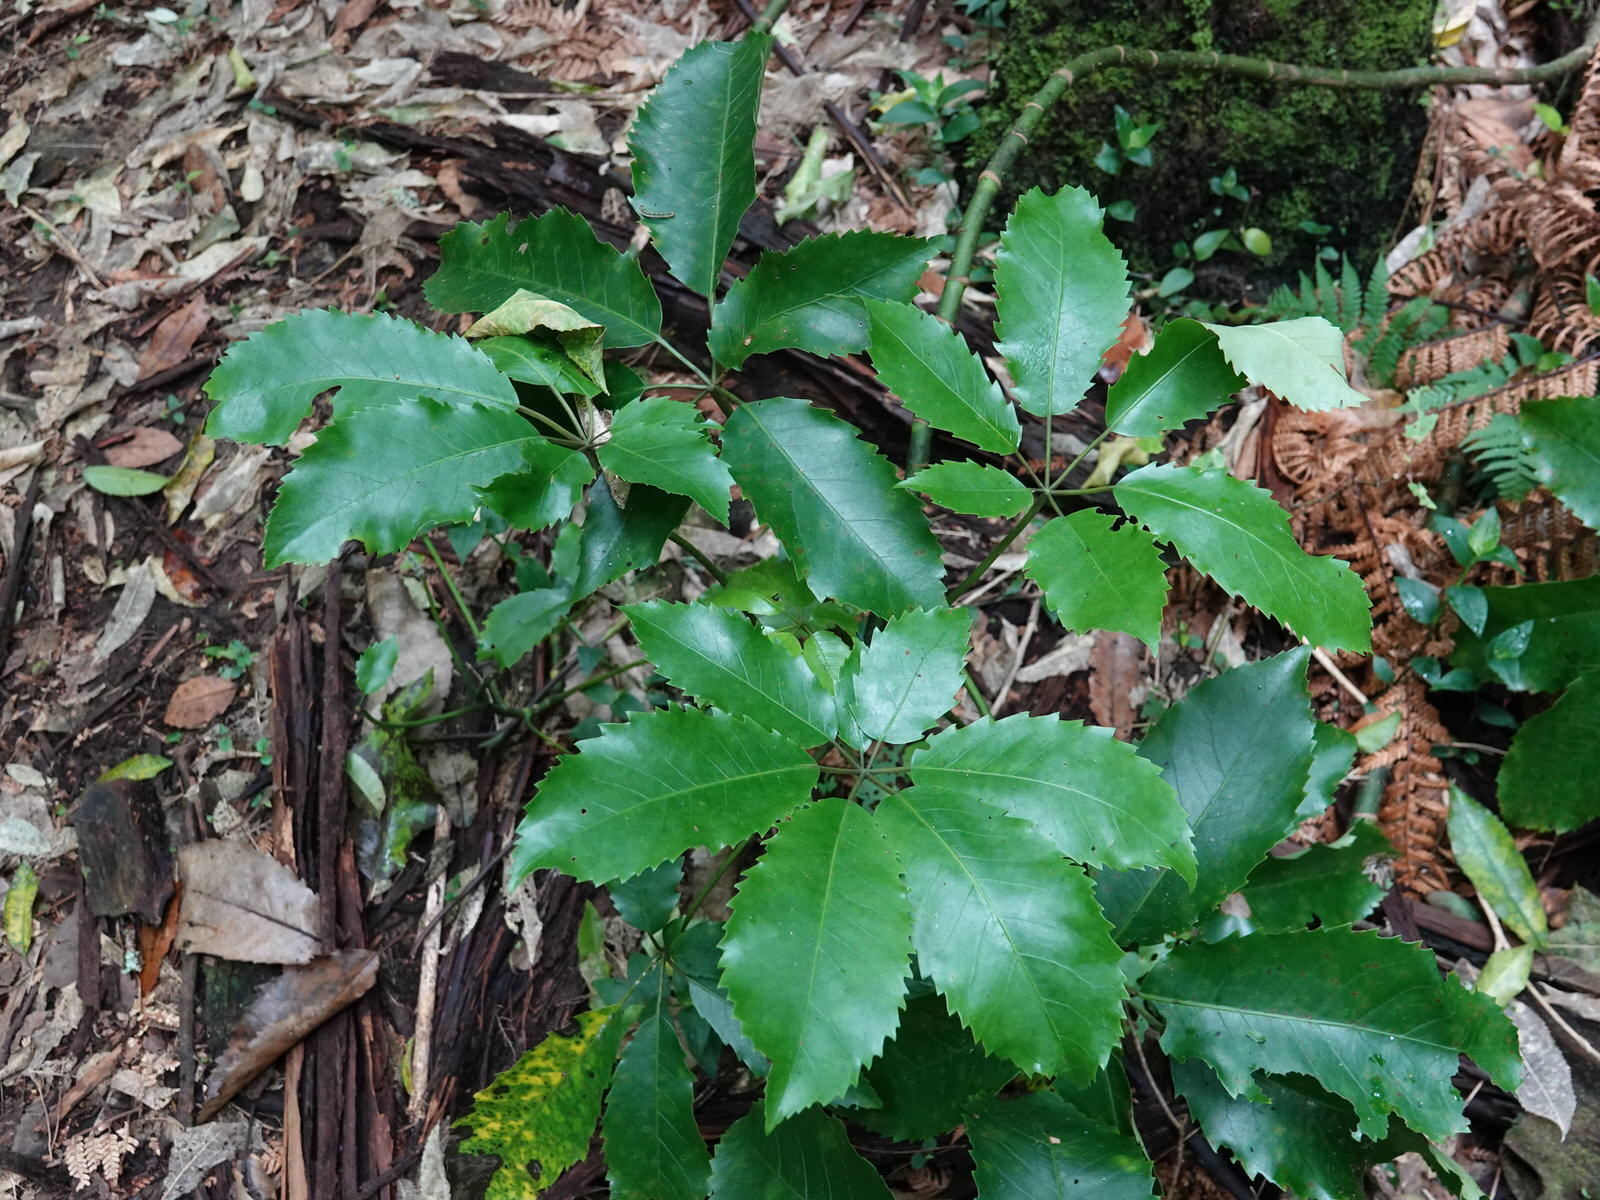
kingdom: Plantae
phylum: Tracheophyta
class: Magnoliopsida
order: Apiales
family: Araliaceae
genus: Neopanax
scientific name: Neopanax arboreus
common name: Five-fingers
